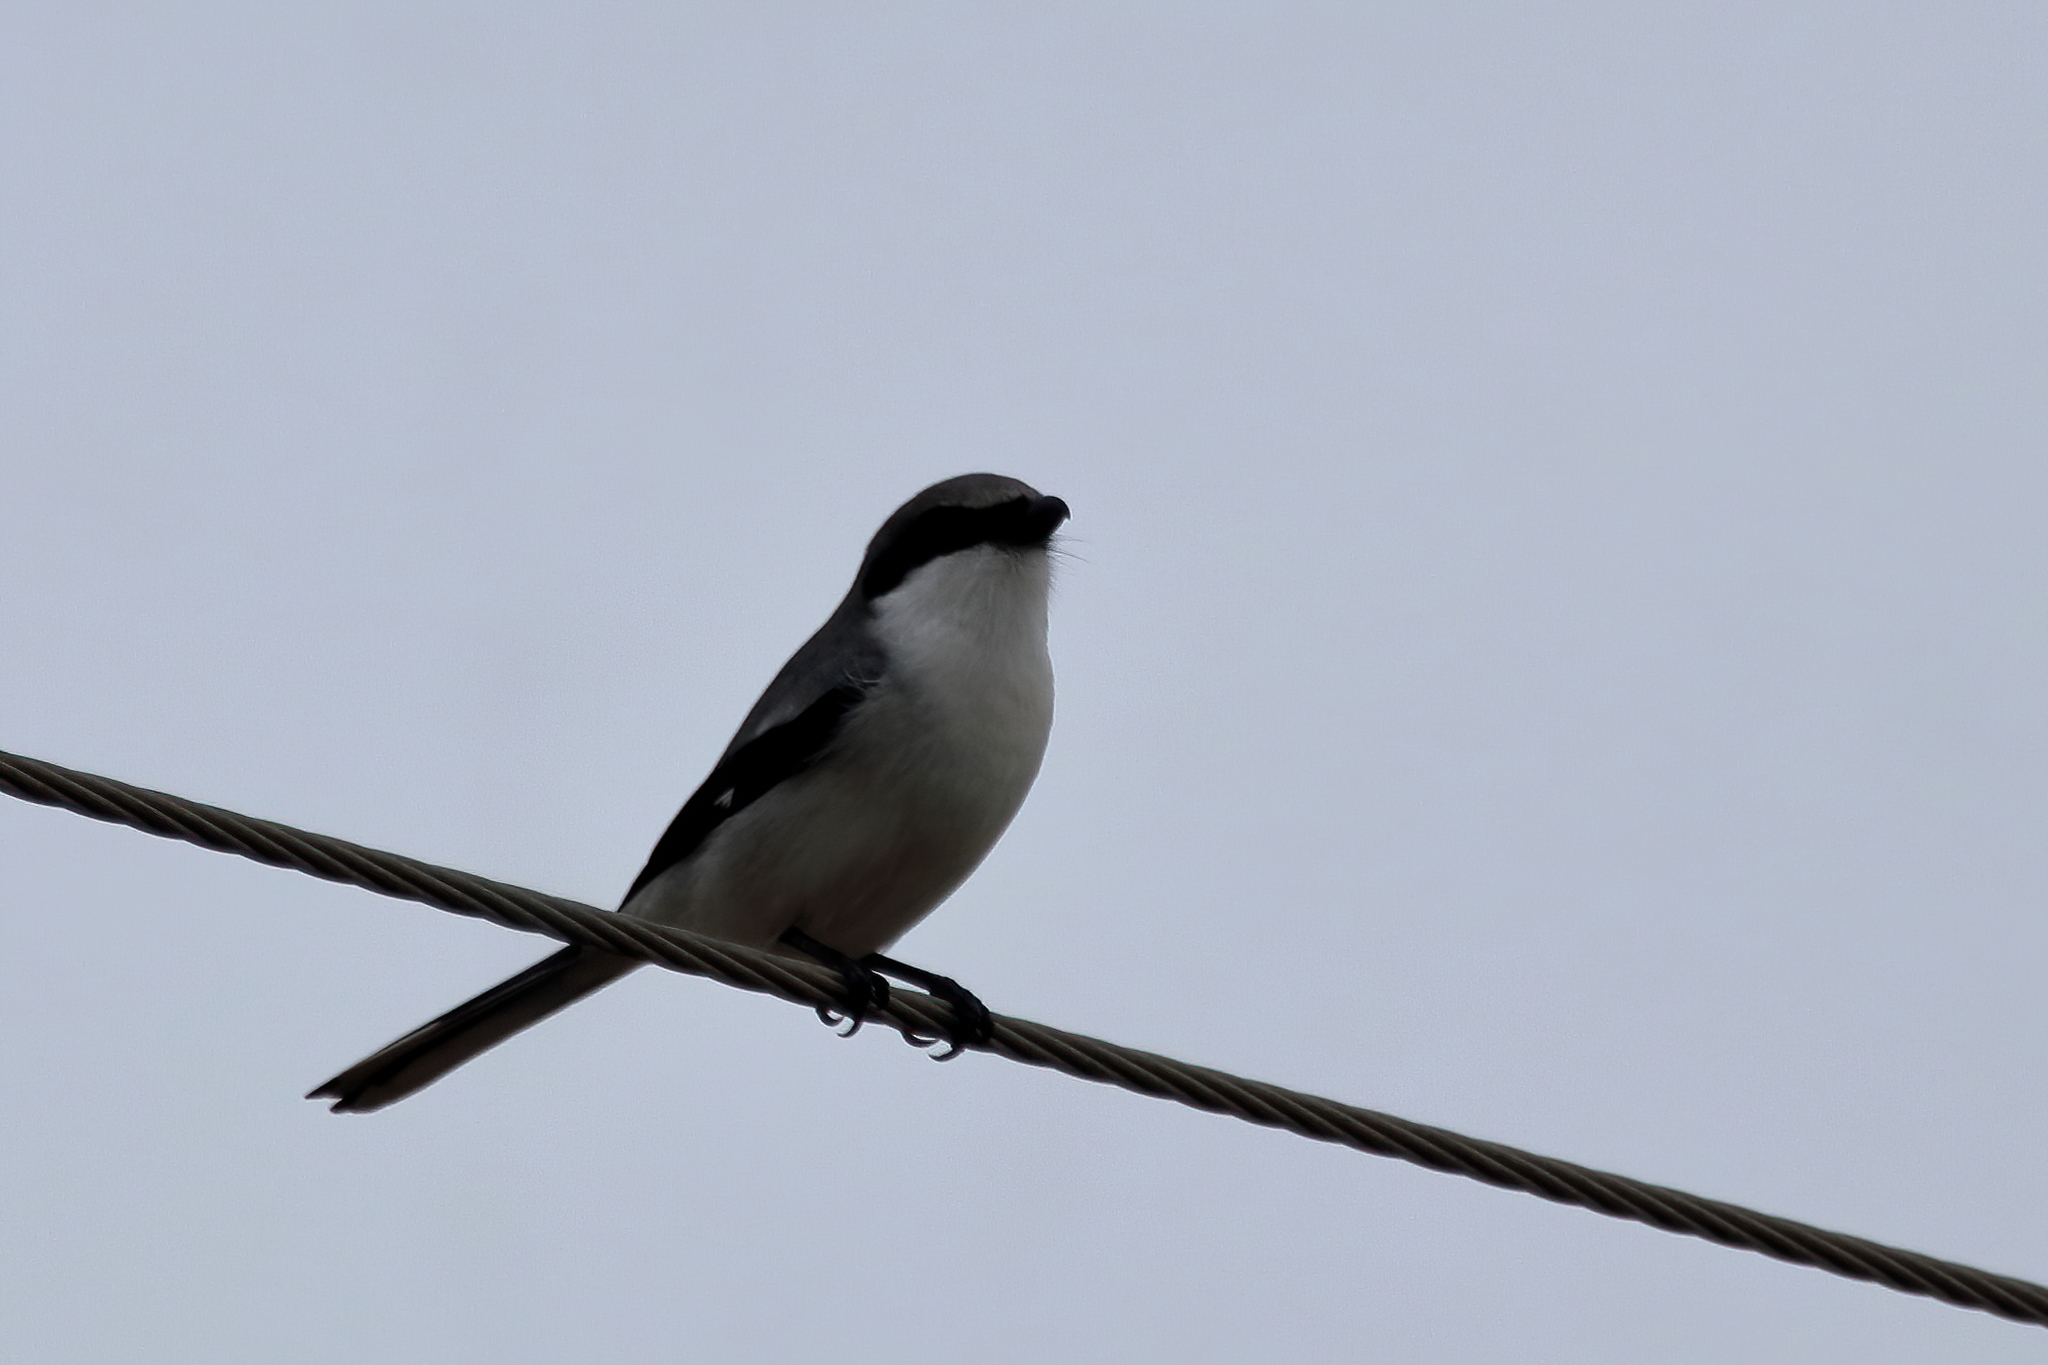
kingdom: Animalia
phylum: Chordata
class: Aves
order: Passeriformes
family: Laniidae
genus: Lanius
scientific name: Lanius ludovicianus
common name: Loggerhead shrike
